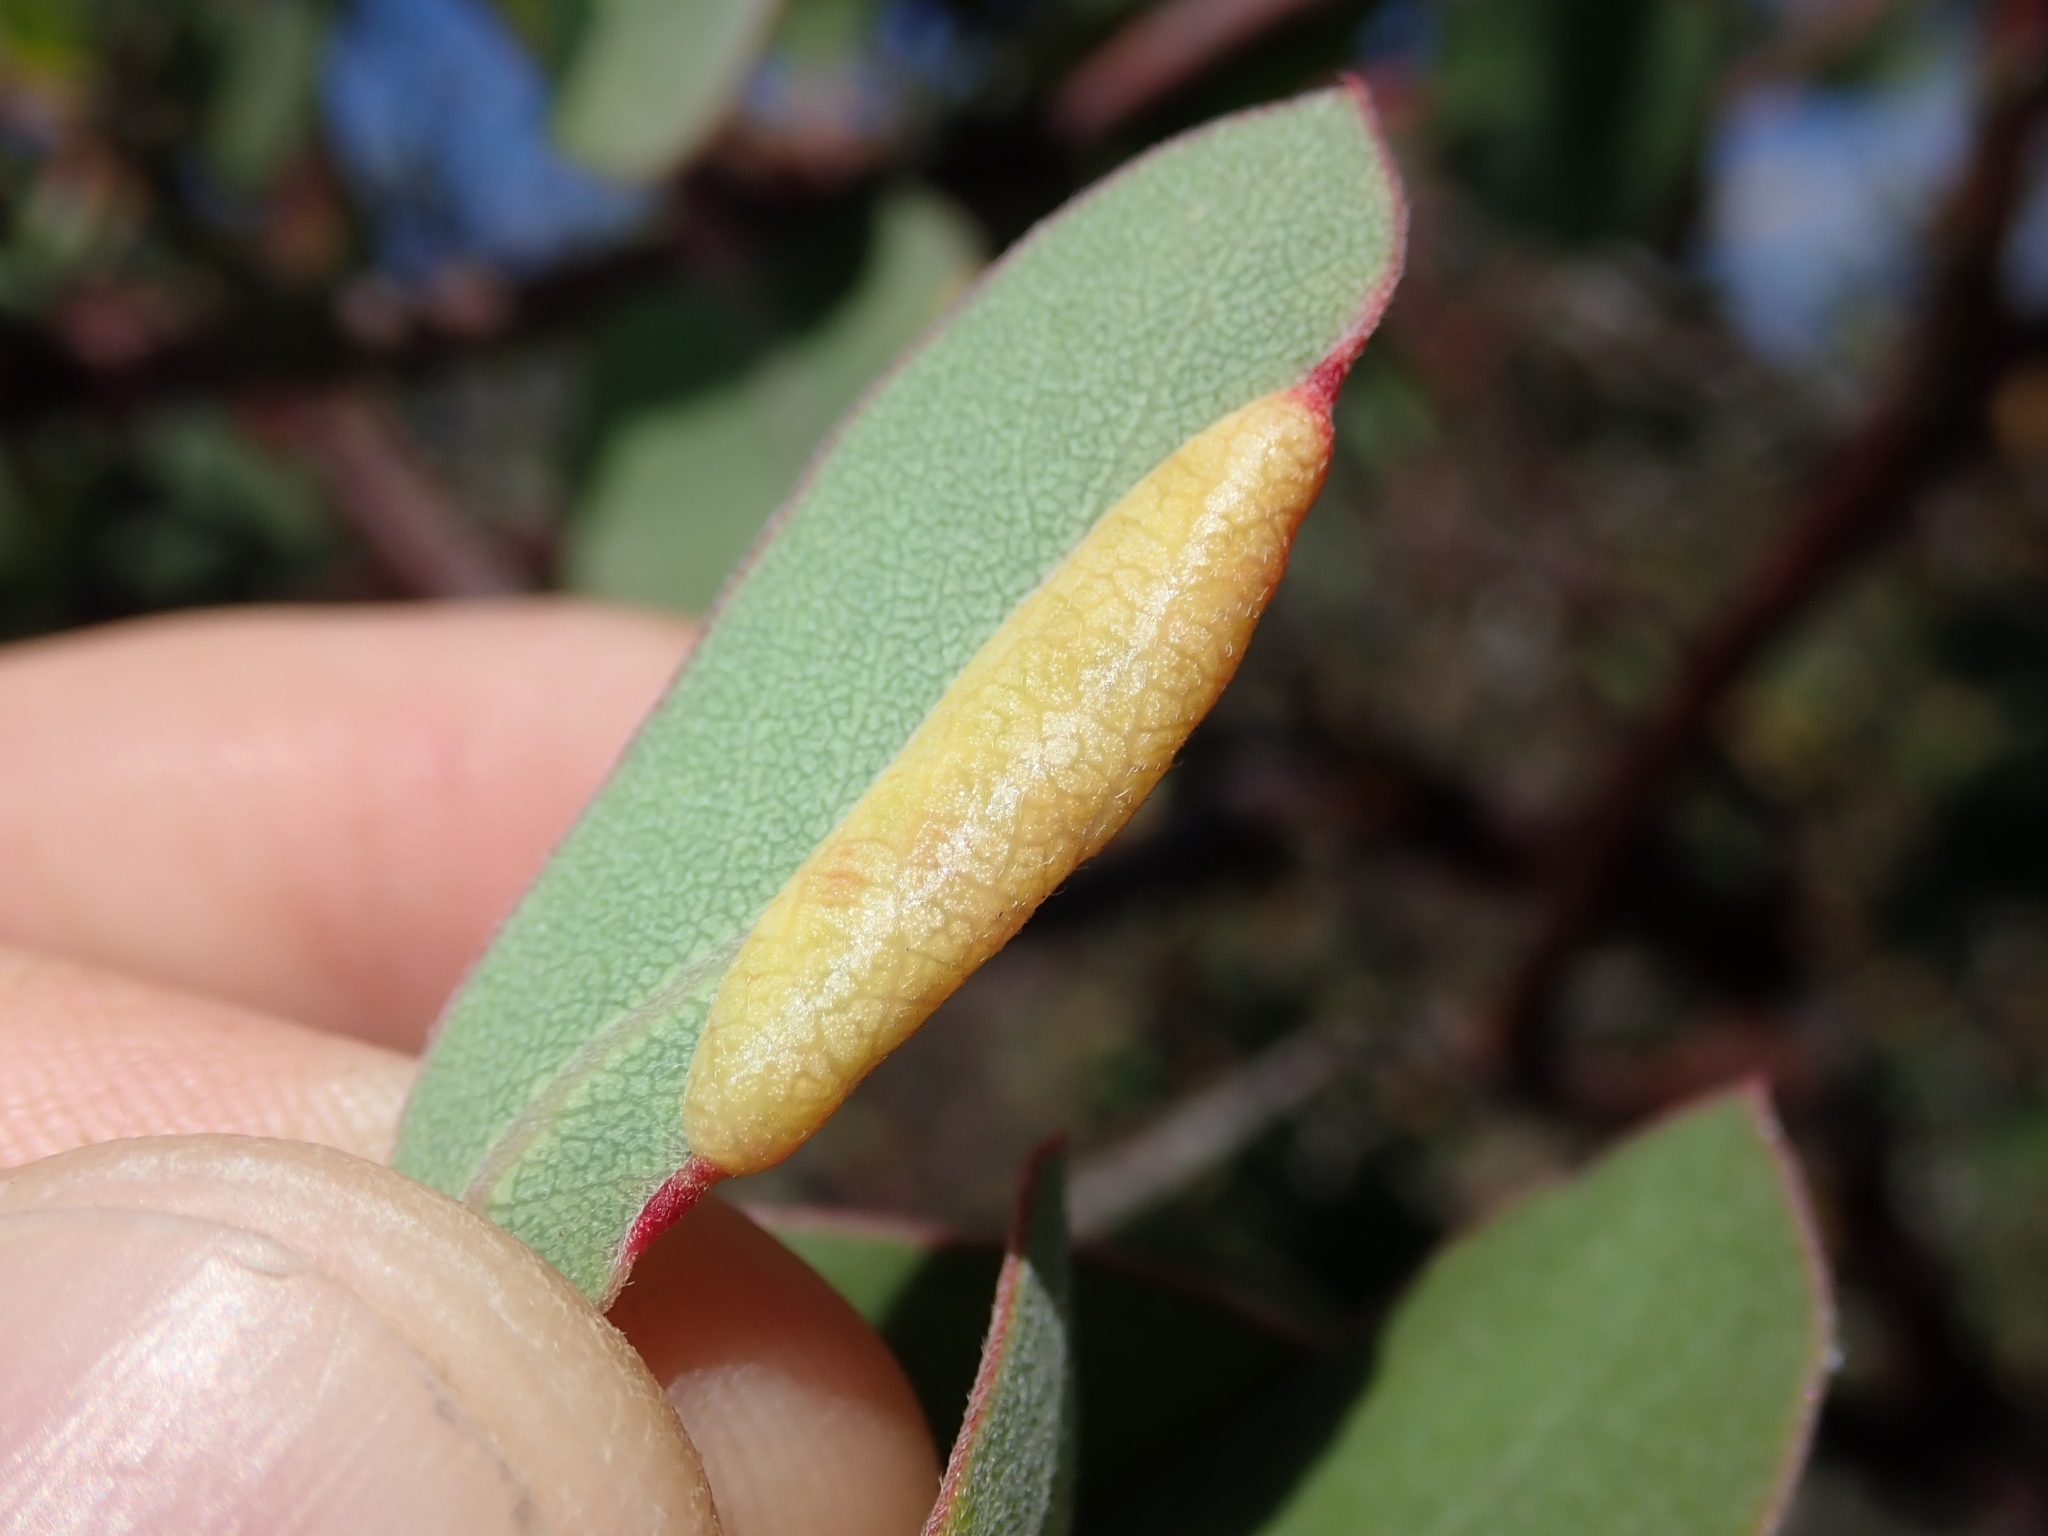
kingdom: Animalia
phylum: Arthropoda
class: Insecta
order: Hemiptera
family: Aphididae
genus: Tamalia
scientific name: Tamalia coweni
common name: Manzanita leafgall aphid
